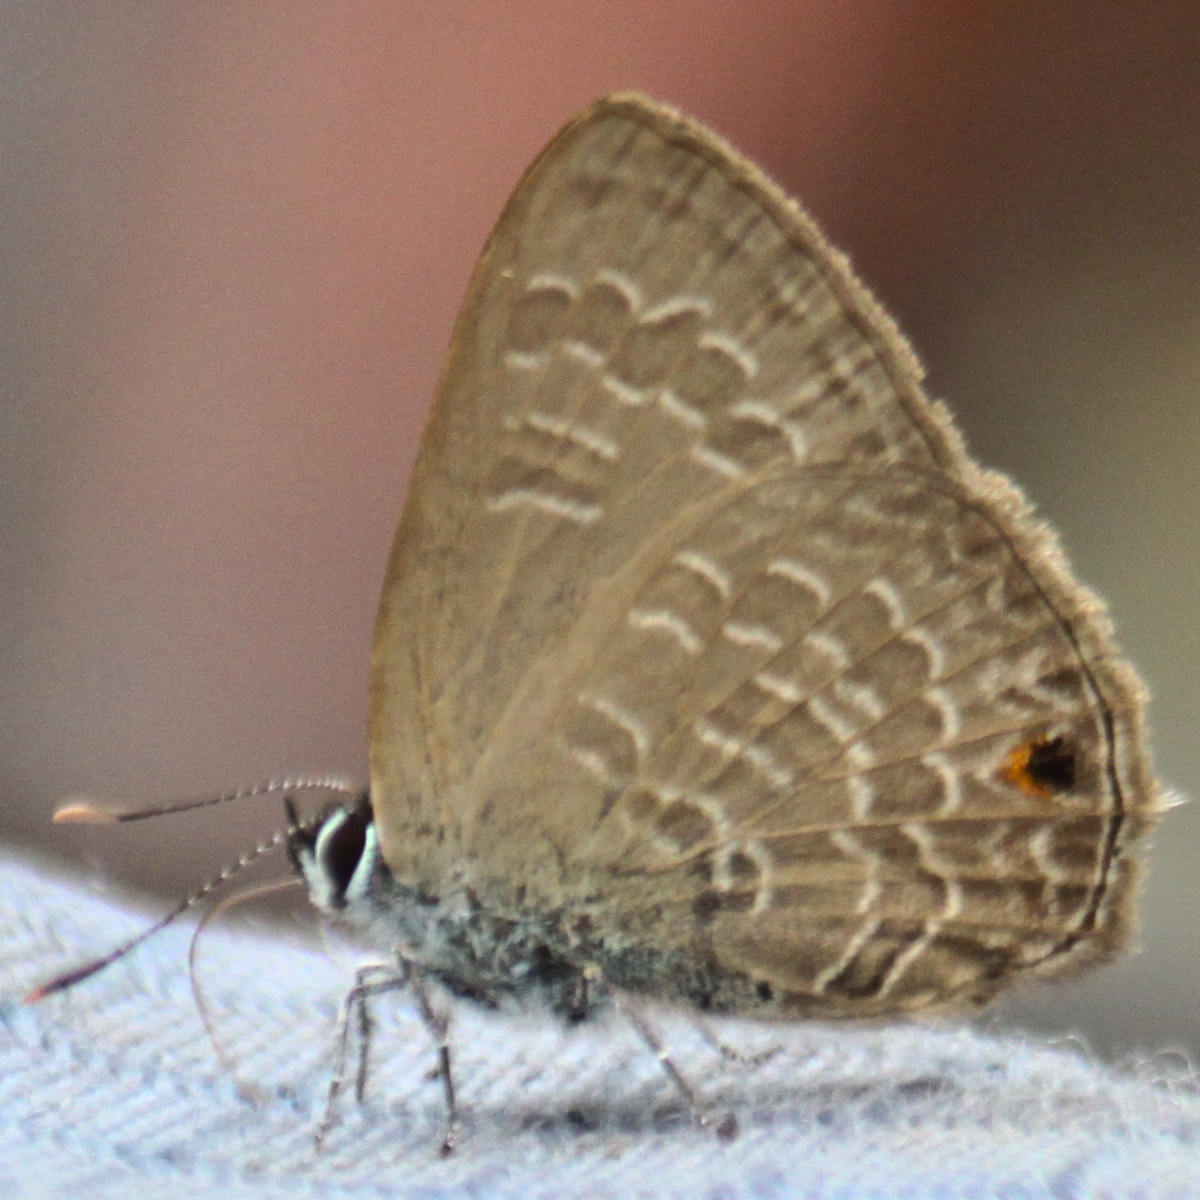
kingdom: Animalia
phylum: Arthropoda
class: Insecta
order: Lepidoptera
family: Lycaenidae
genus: Anthene
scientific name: Anthene emolus
